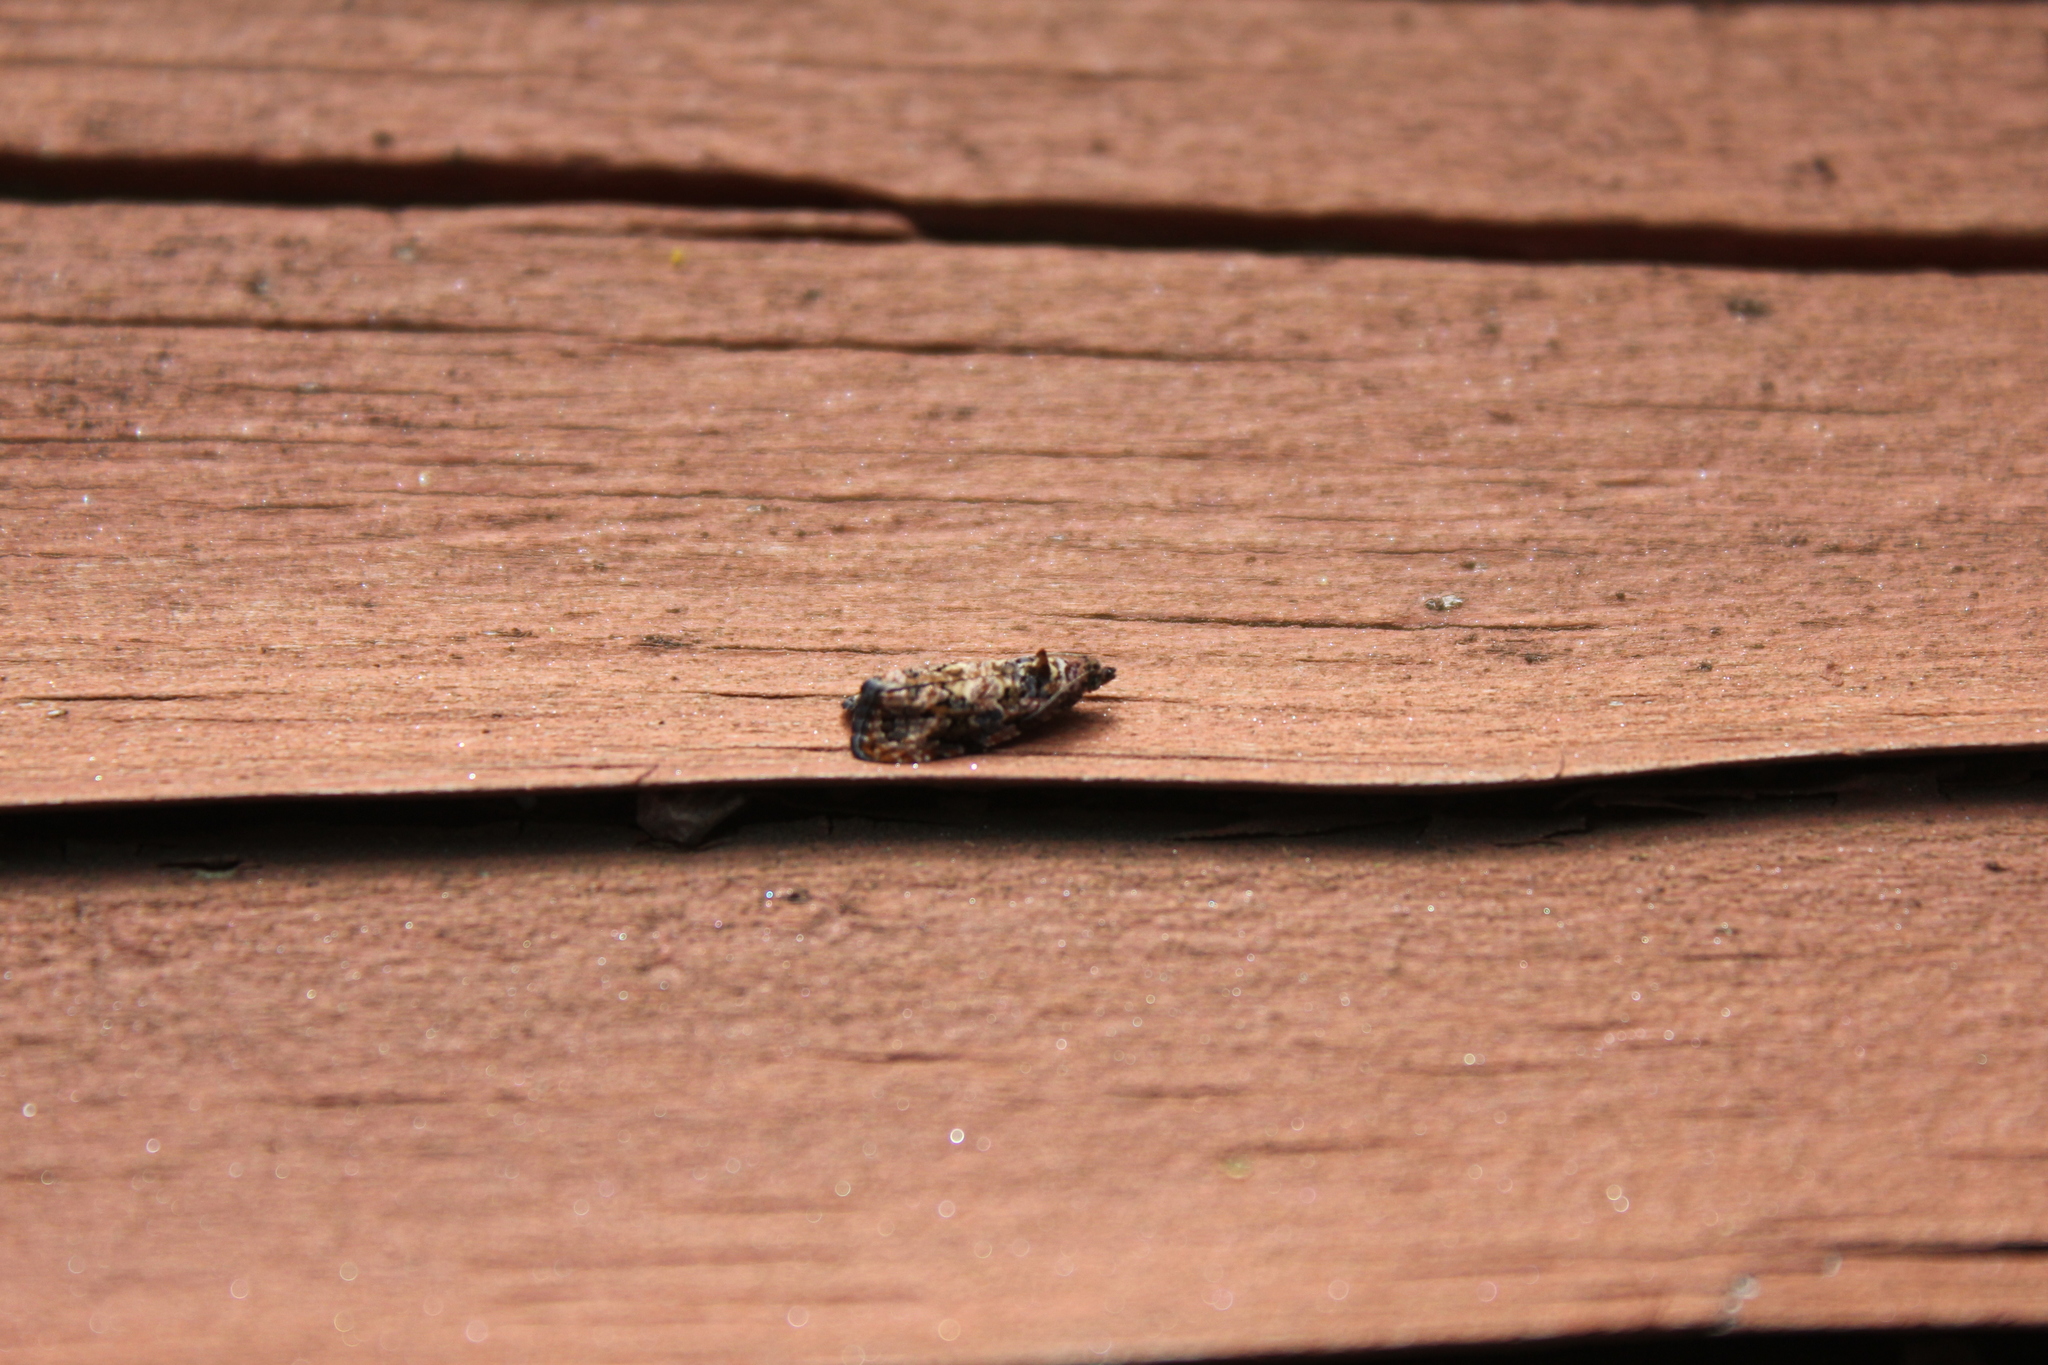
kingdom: Animalia
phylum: Arthropoda
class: Insecta
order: Lepidoptera
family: Tortricidae
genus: Endothenia
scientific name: Endothenia hebesana
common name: Verbena bud moth
